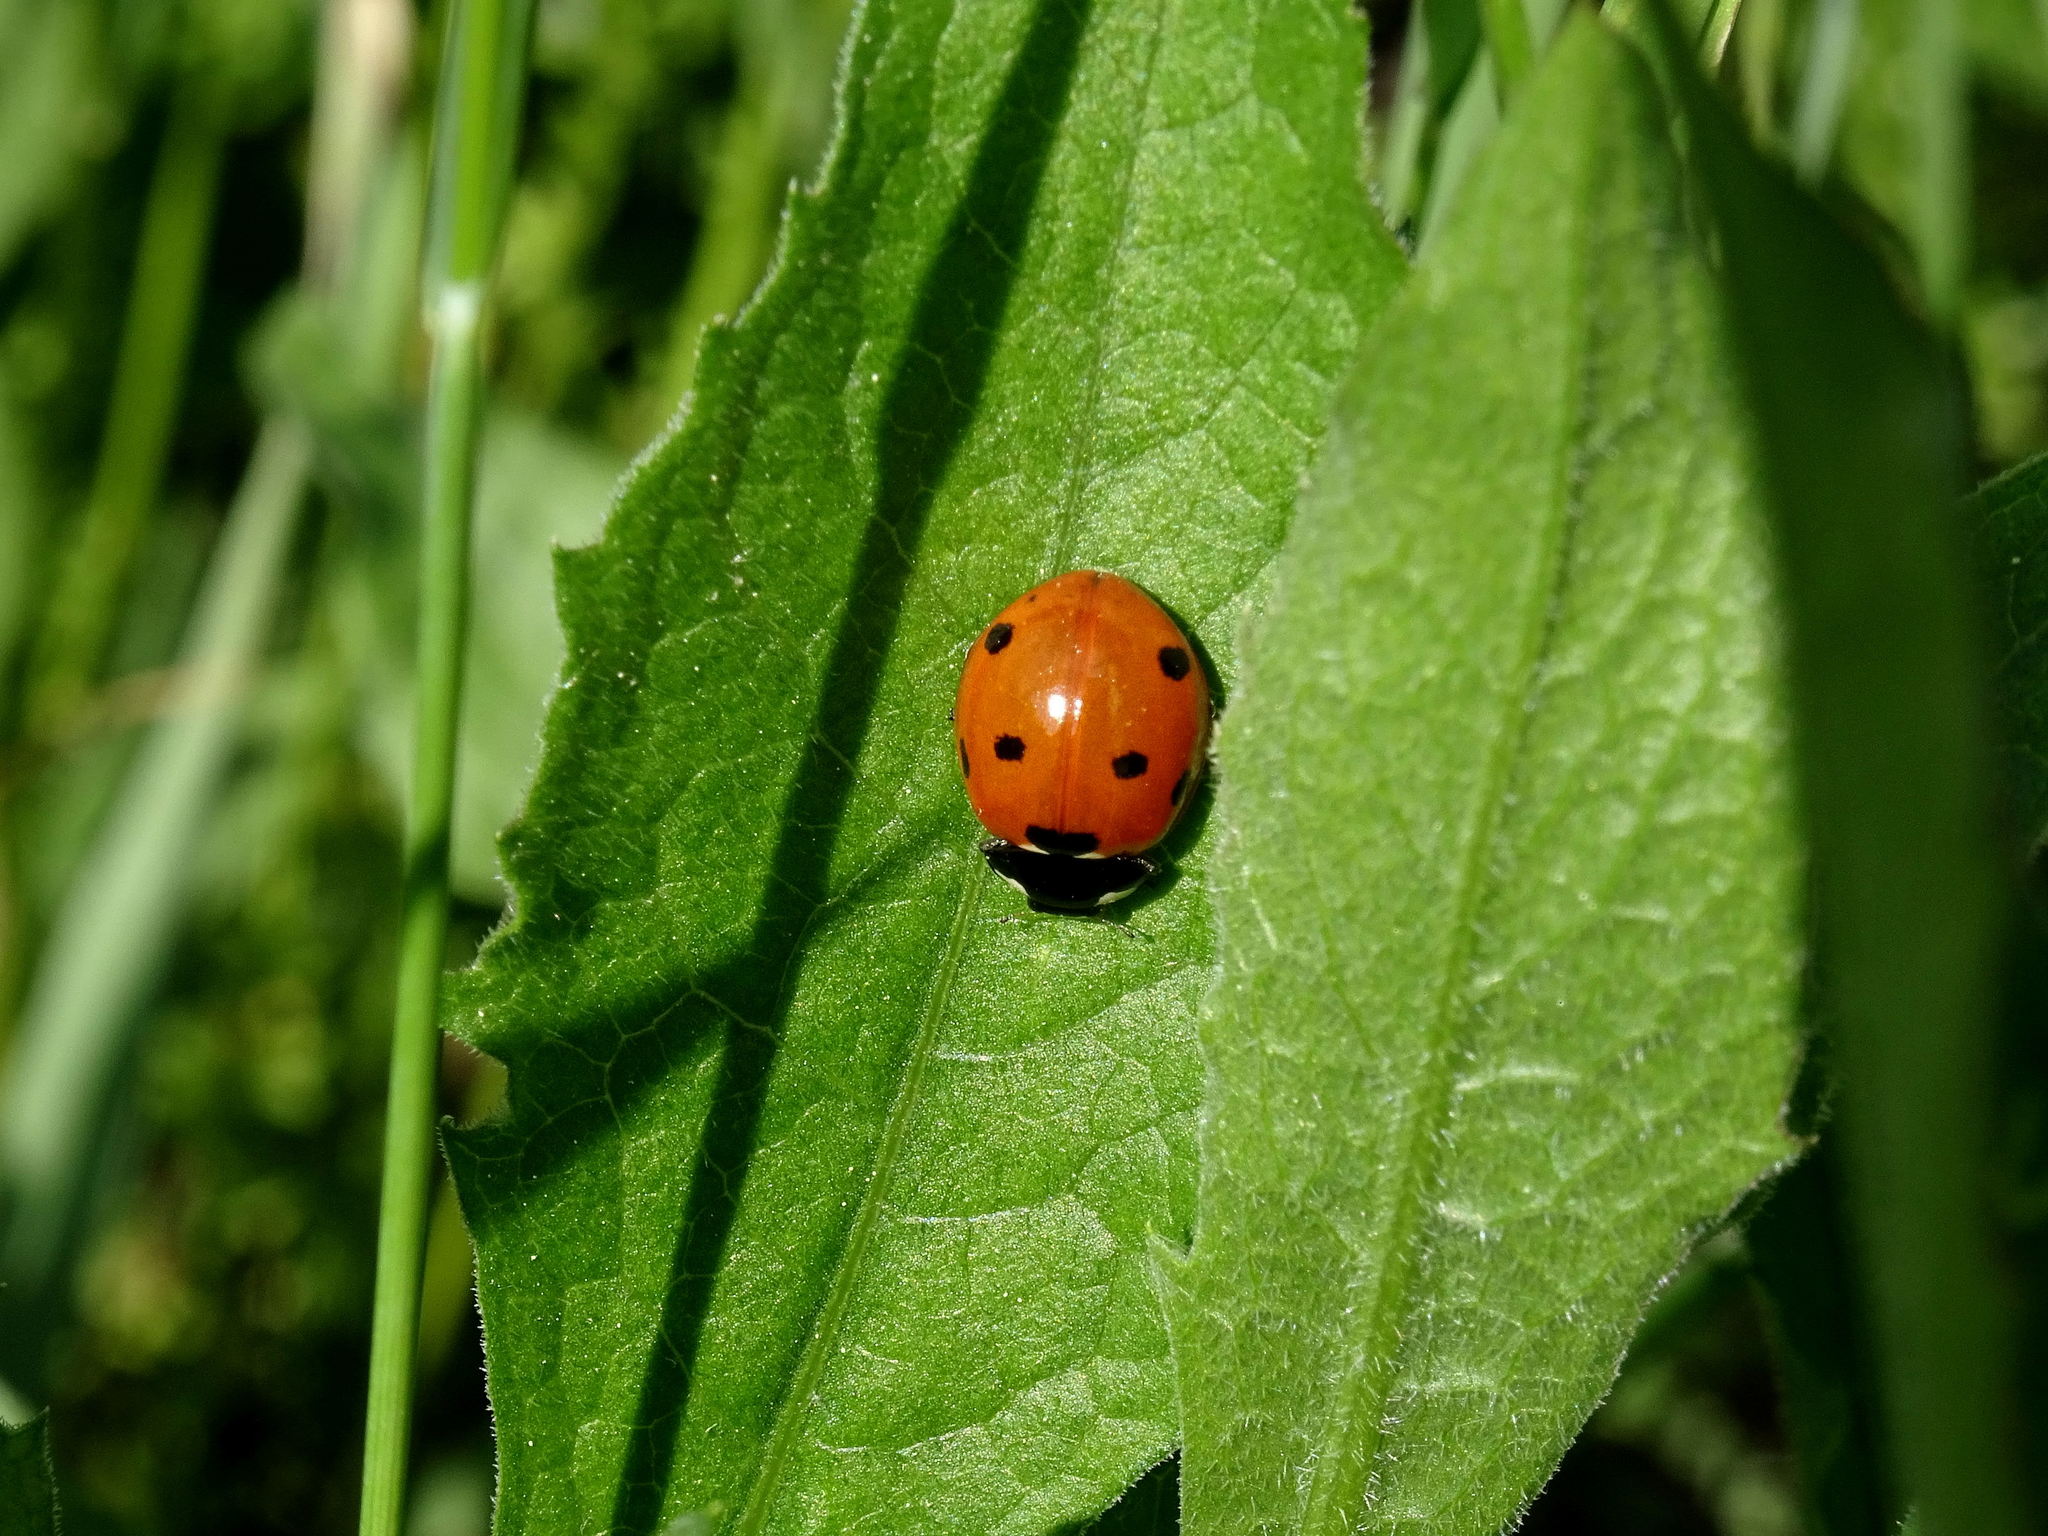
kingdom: Animalia
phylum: Arthropoda
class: Insecta
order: Coleoptera
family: Coccinellidae
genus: Coccinella
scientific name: Coccinella septempunctata
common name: Sevenspotted lady beetle
